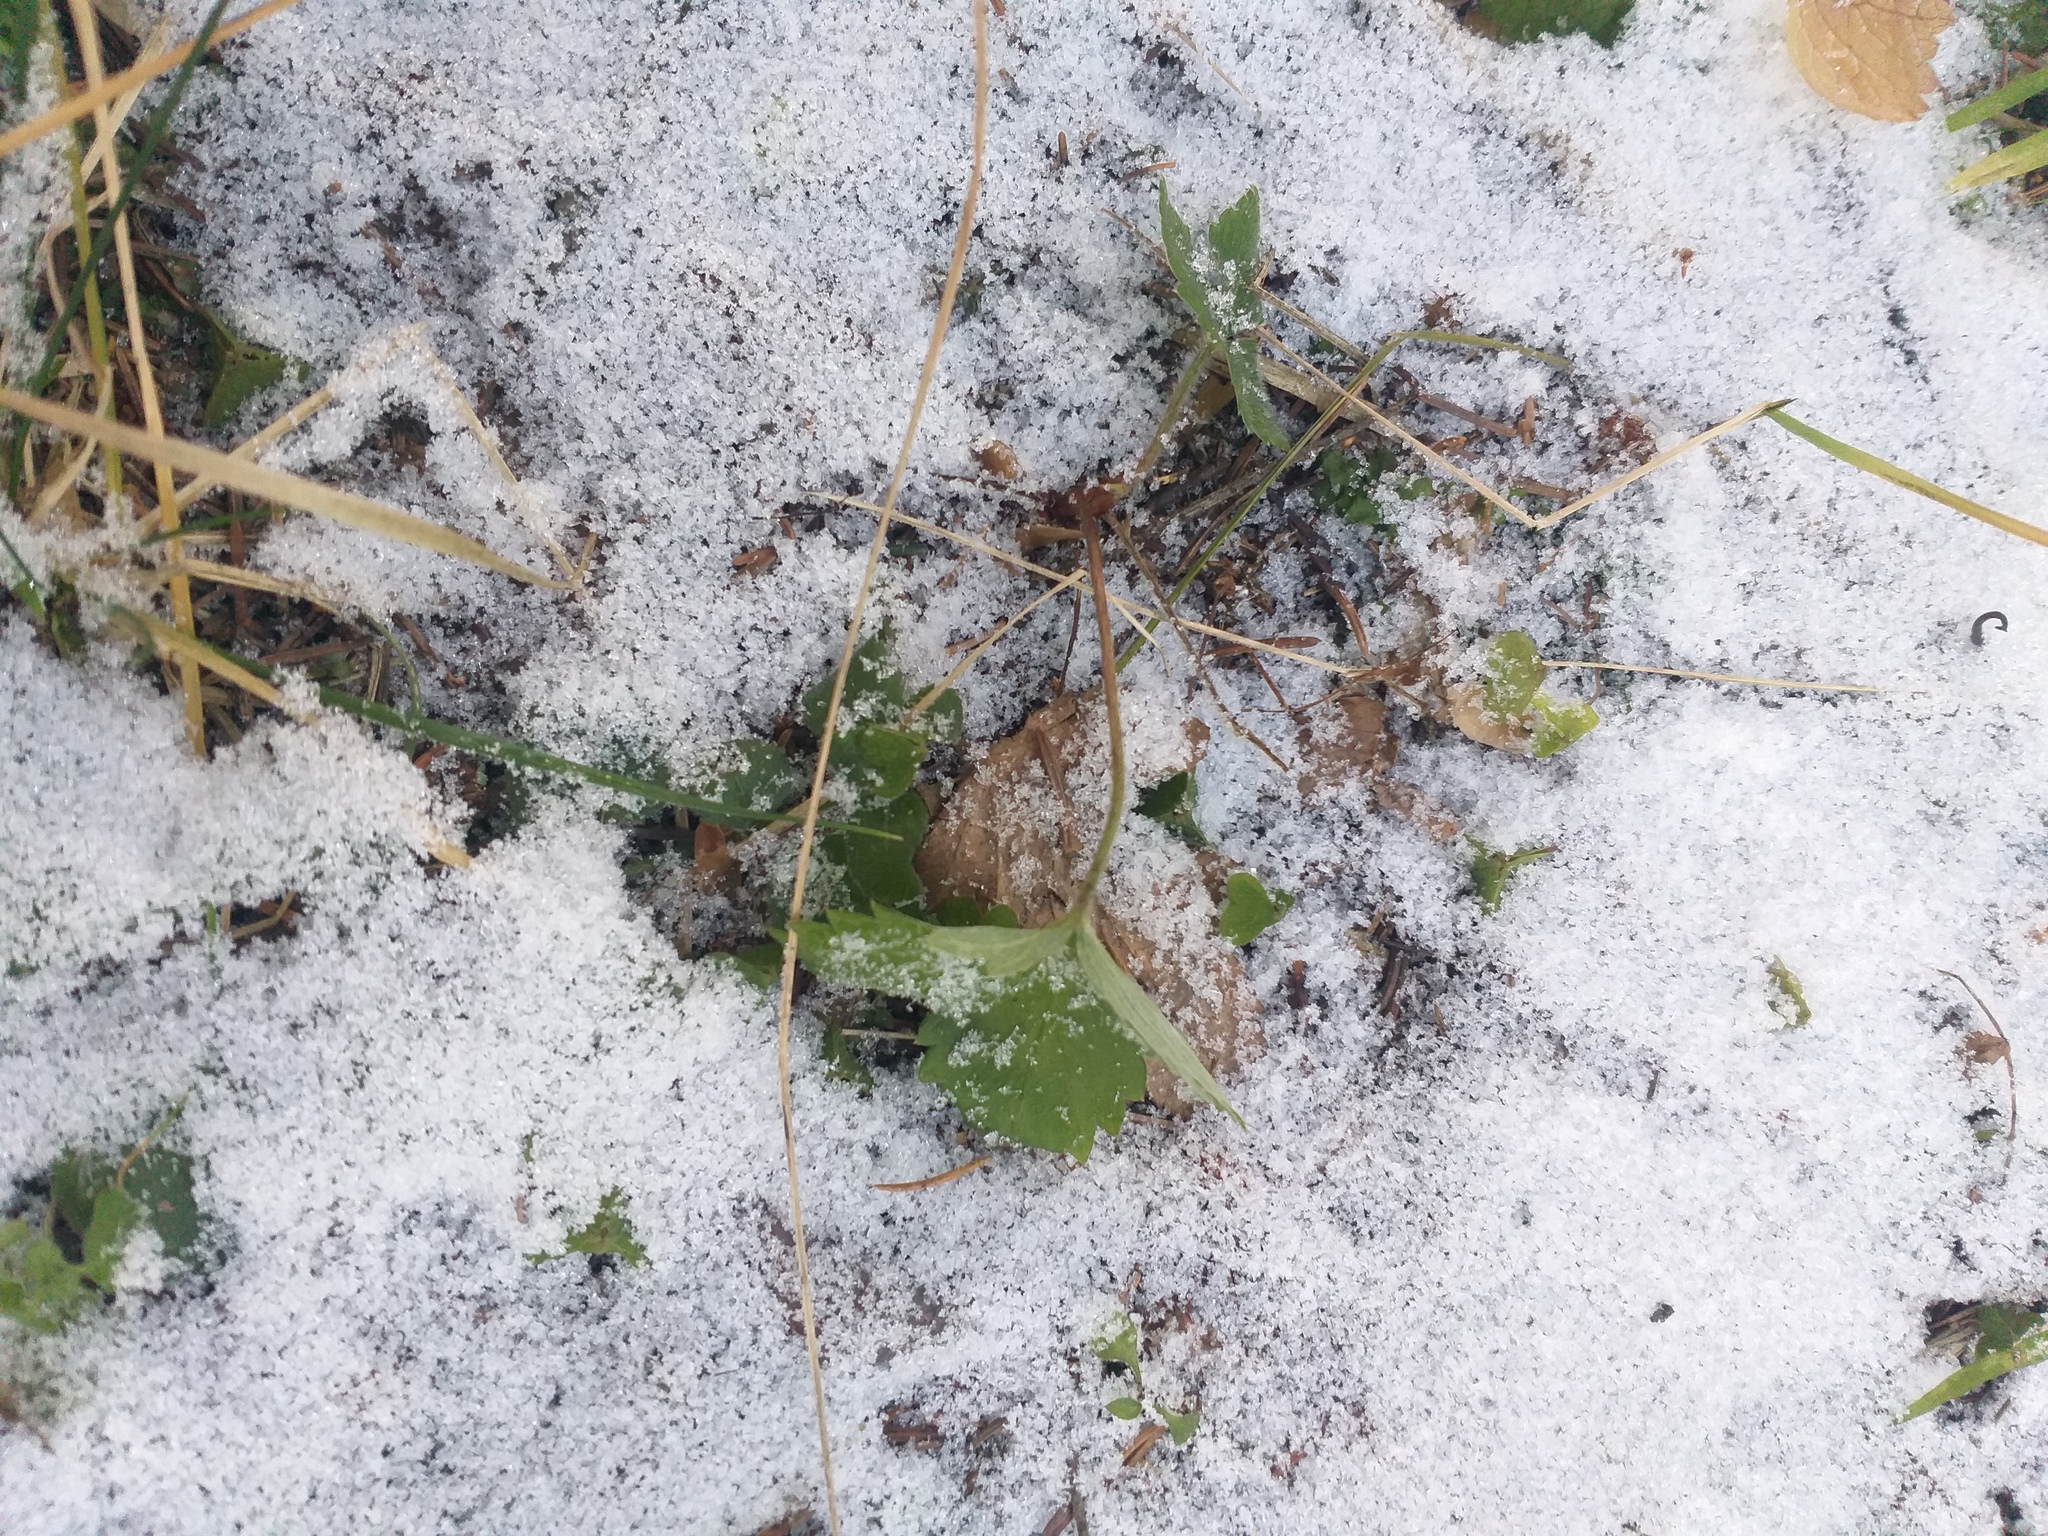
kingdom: Plantae
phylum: Tracheophyta
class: Magnoliopsida
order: Rosales
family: Rosaceae
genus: Fragaria
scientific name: Fragaria vesca
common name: Wild strawberry
